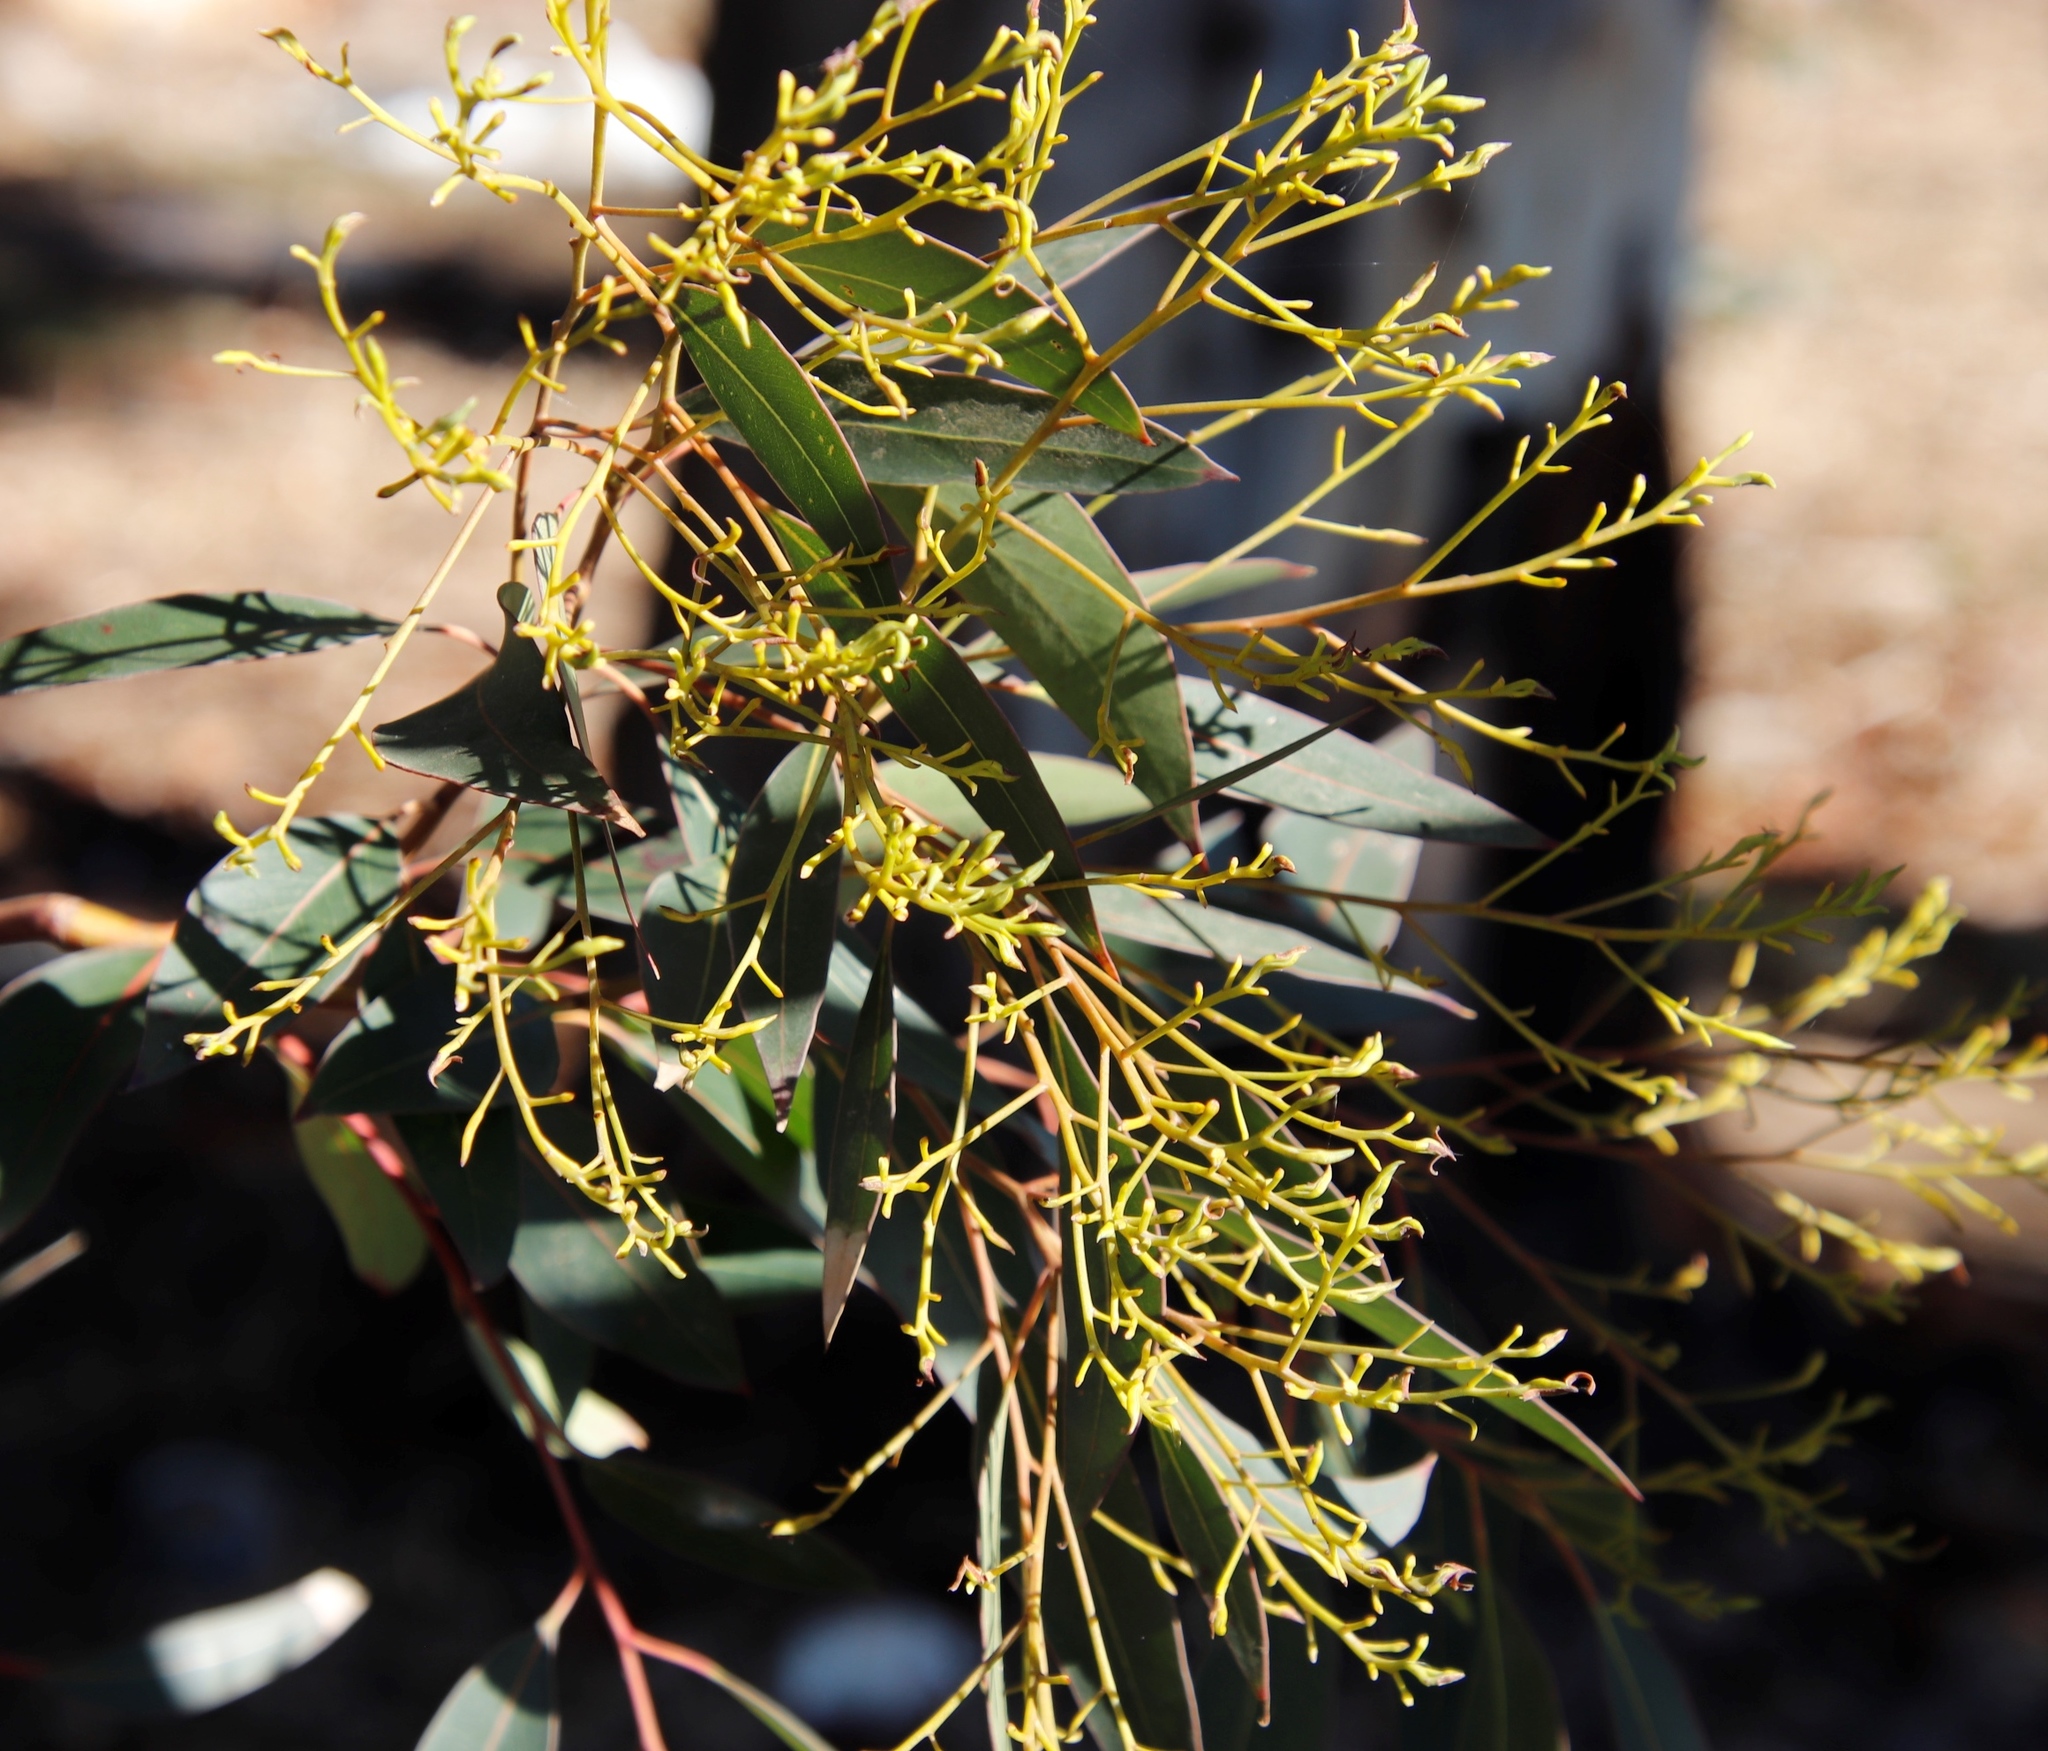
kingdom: Plantae
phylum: Tracheophyta
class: Magnoliopsida
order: Myrtales
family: Myrtaceae
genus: Eucalyptus
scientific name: Eucalyptus cladocalyx
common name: Sugargum
